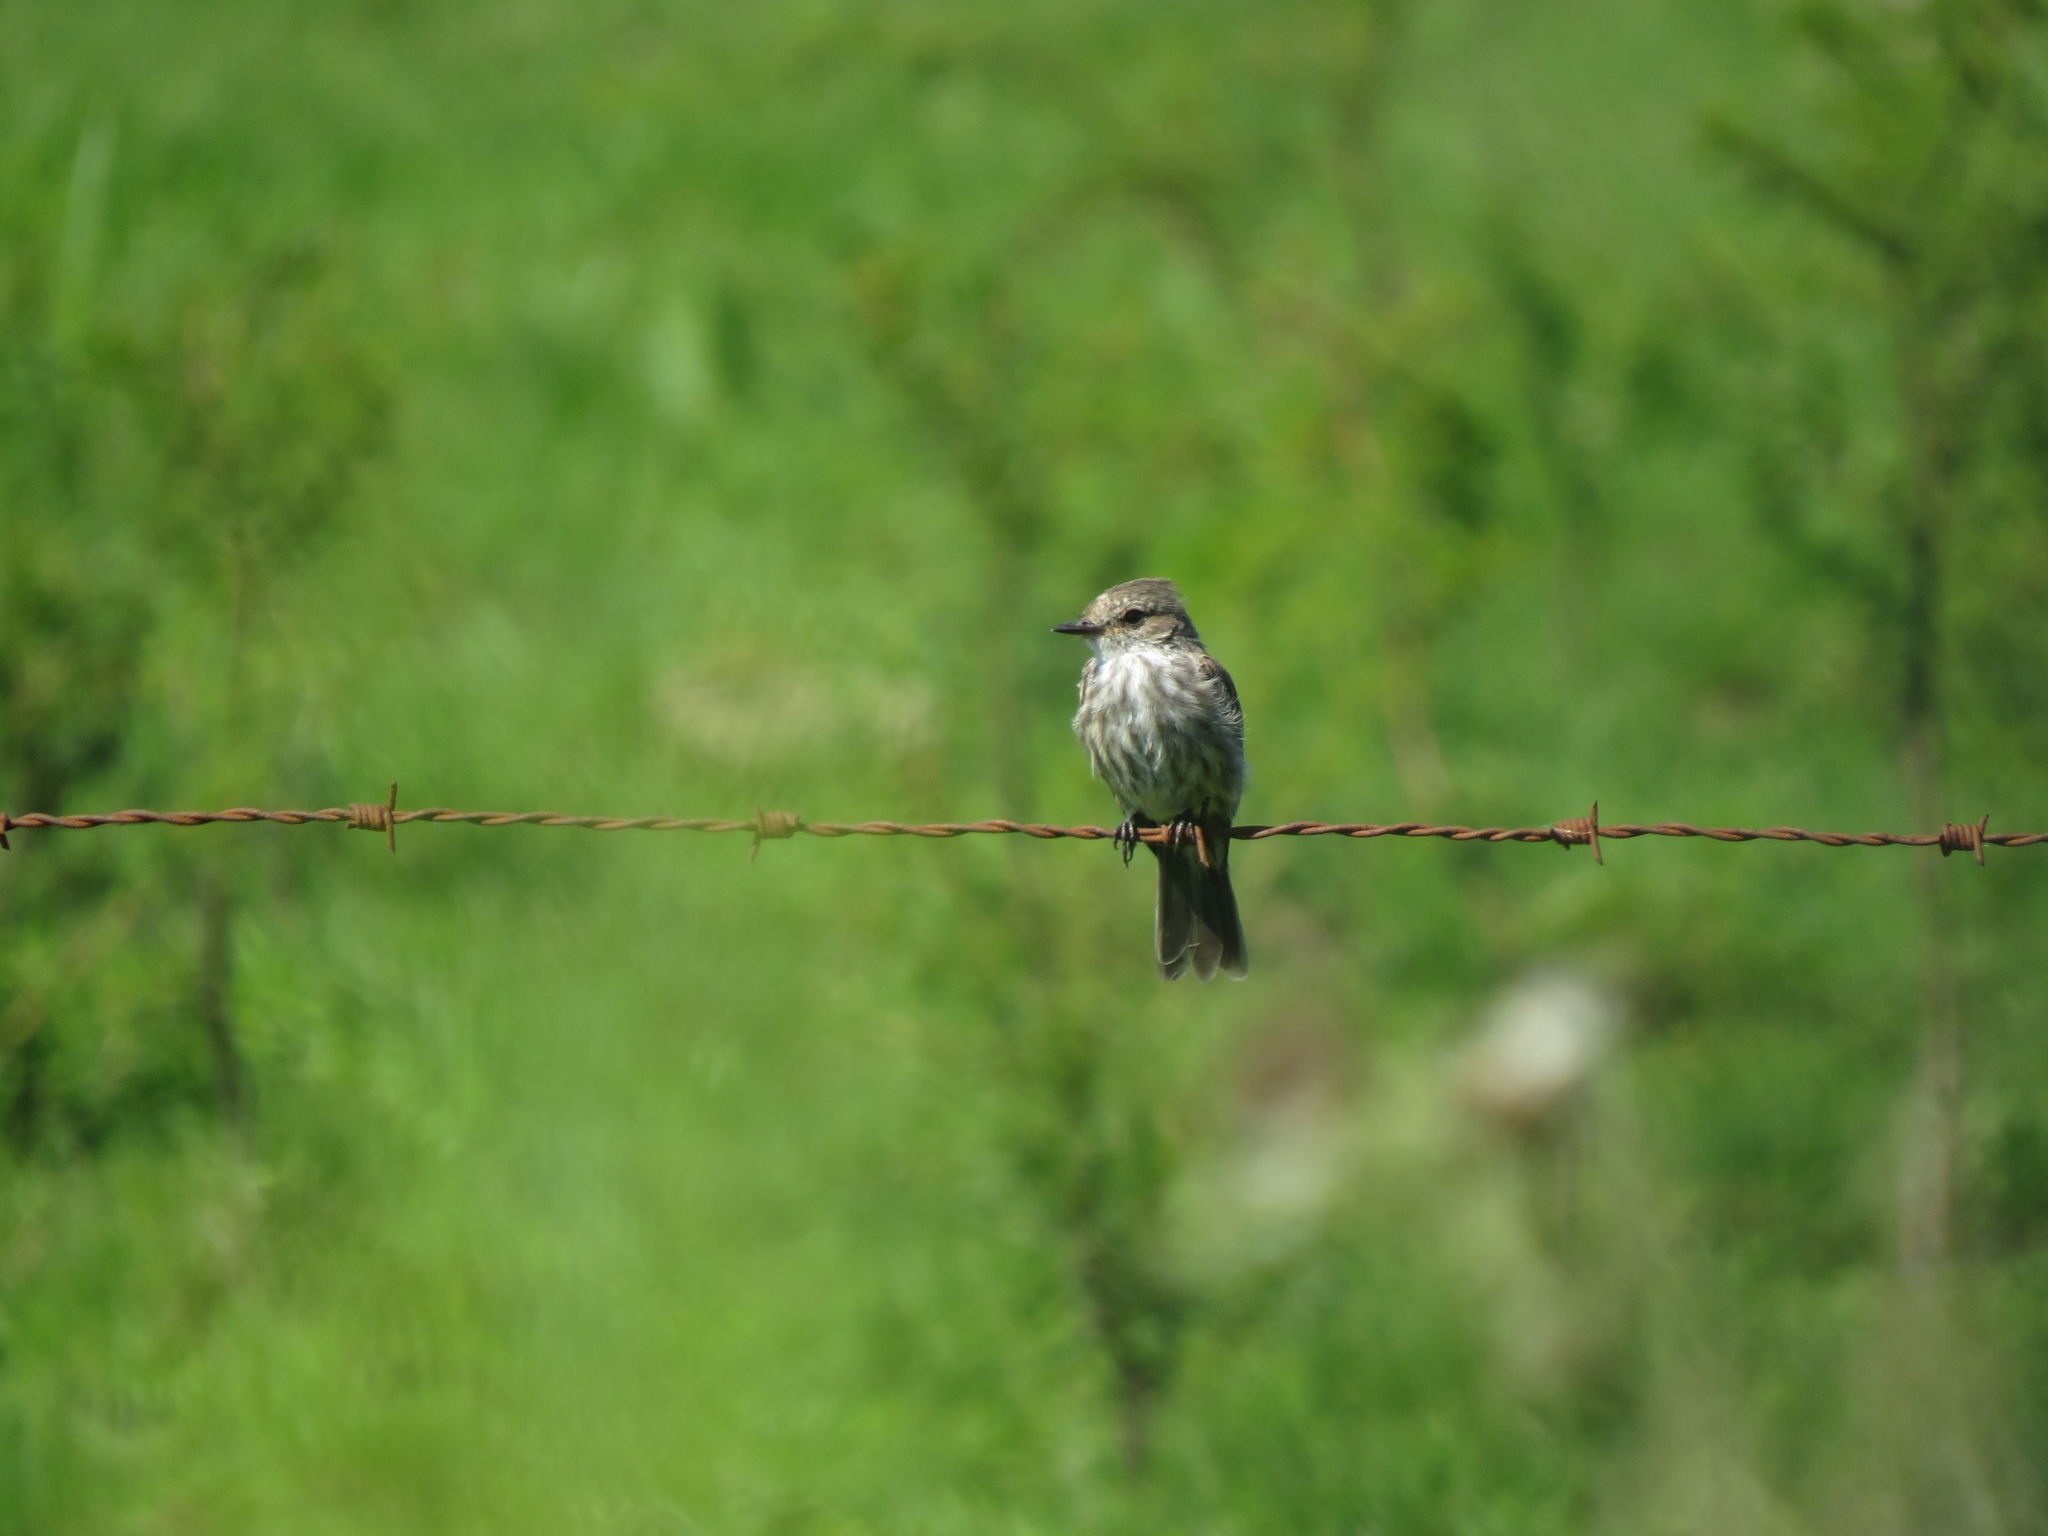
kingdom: Animalia
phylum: Chordata
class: Aves
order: Passeriformes
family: Tyrannidae
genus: Pyrocephalus
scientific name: Pyrocephalus rubinus
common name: Vermilion flycatcher
